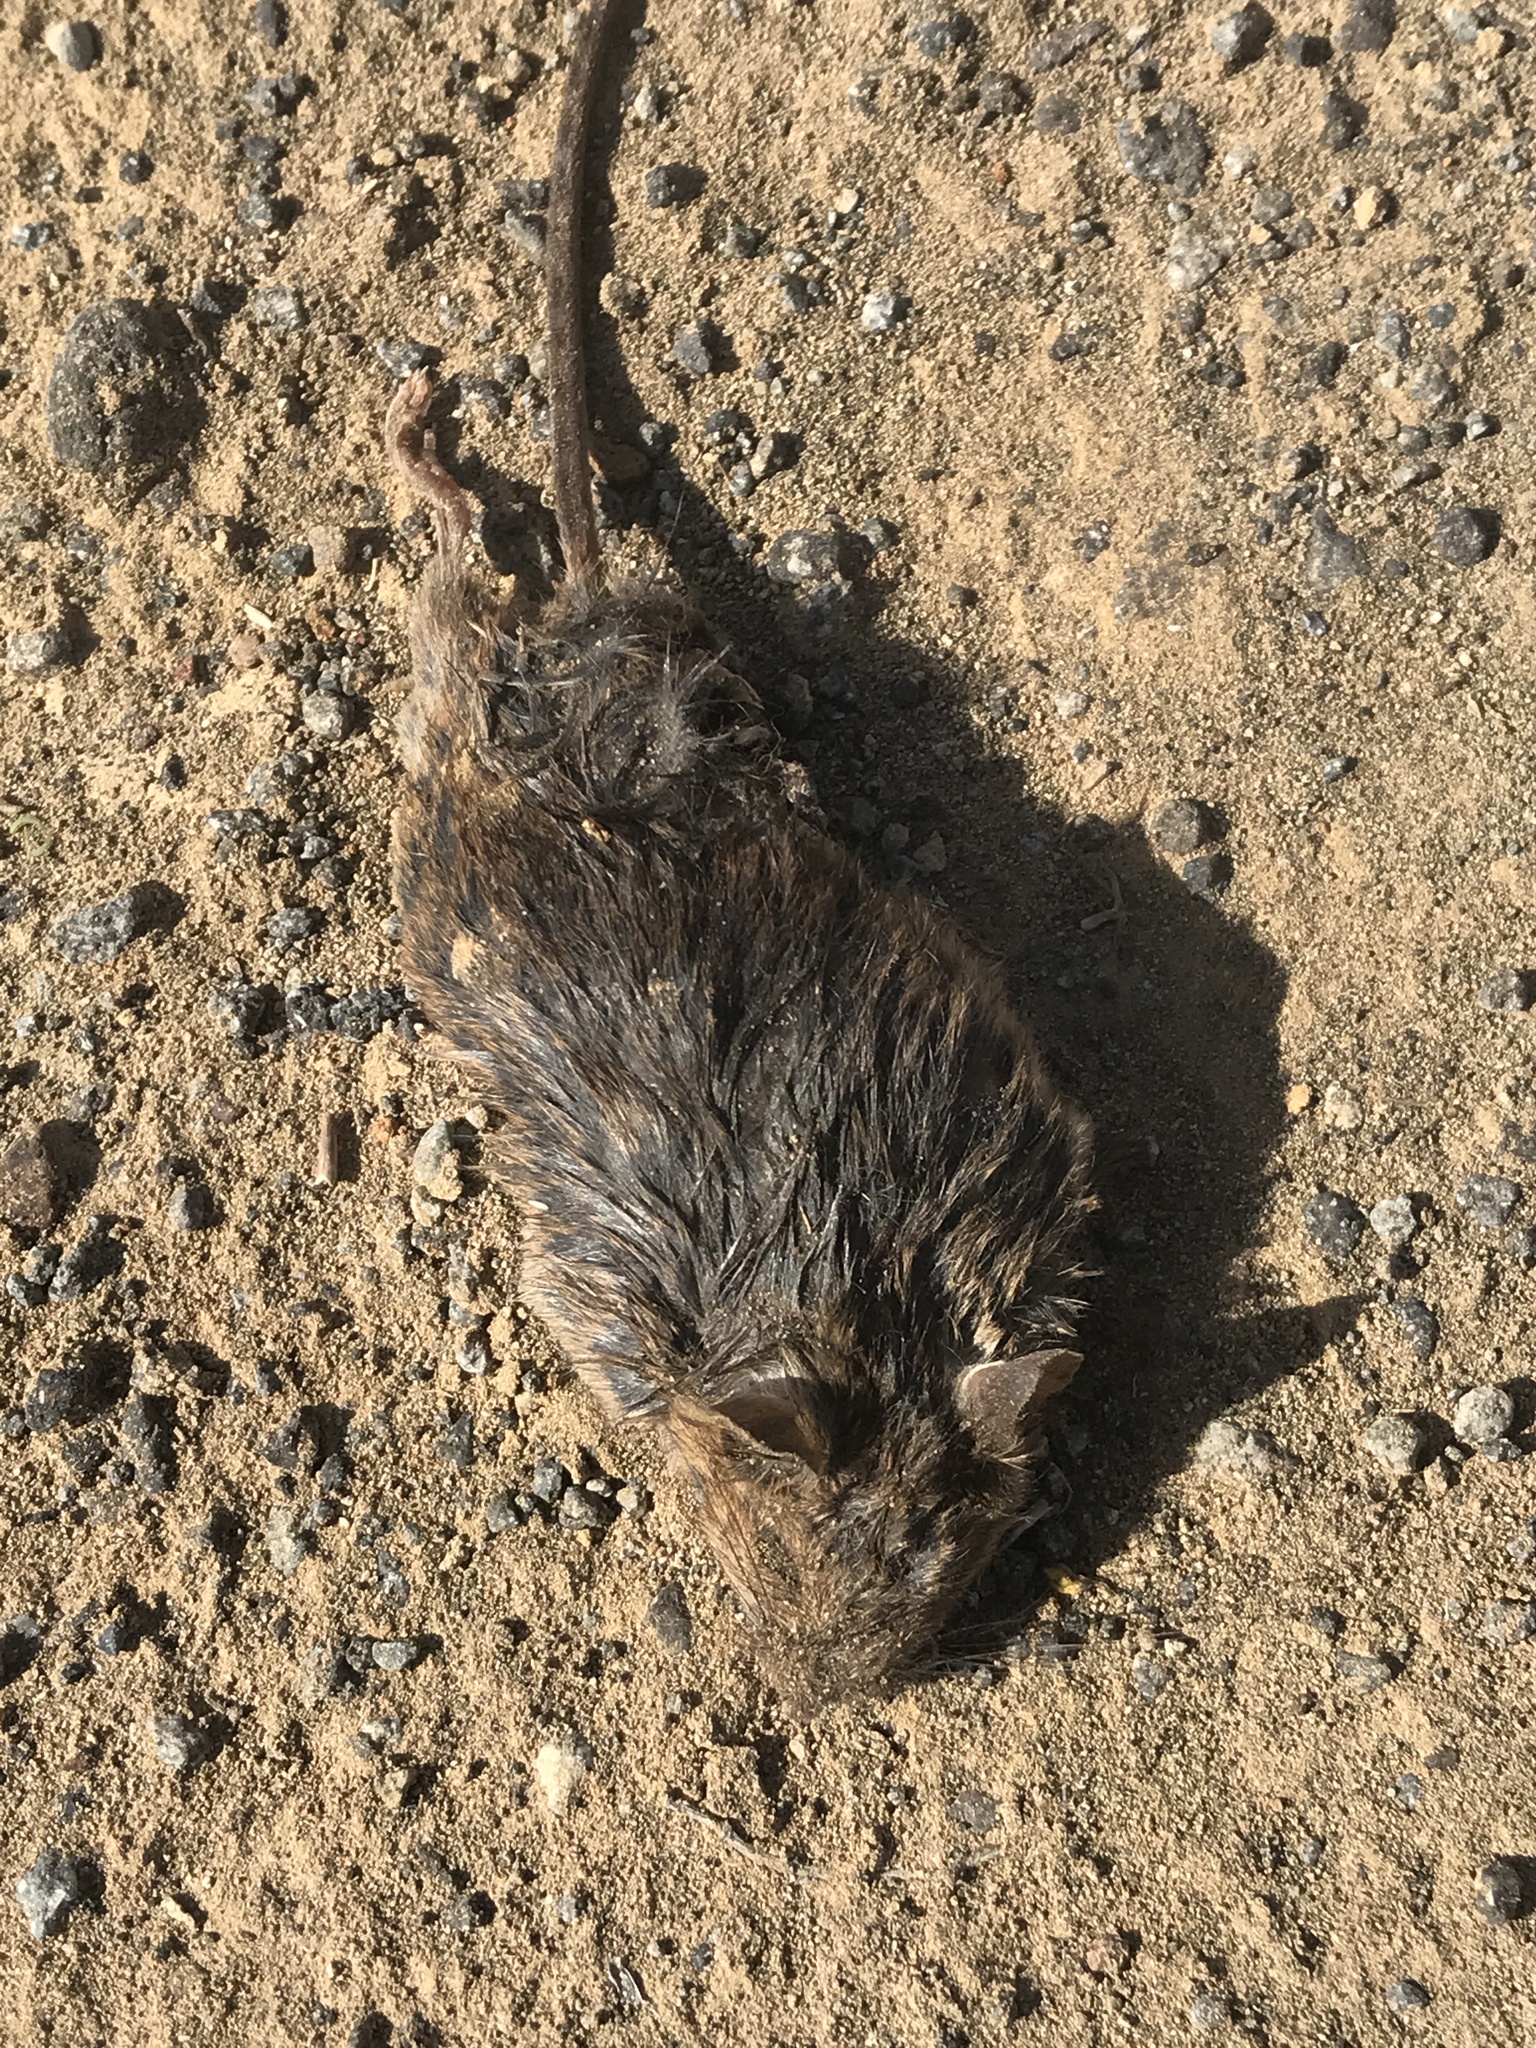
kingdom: Animalia
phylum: Chordata
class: Mammalia
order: Rodentia
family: Muridae
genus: Mus
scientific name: Mus musculus
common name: House mouse
